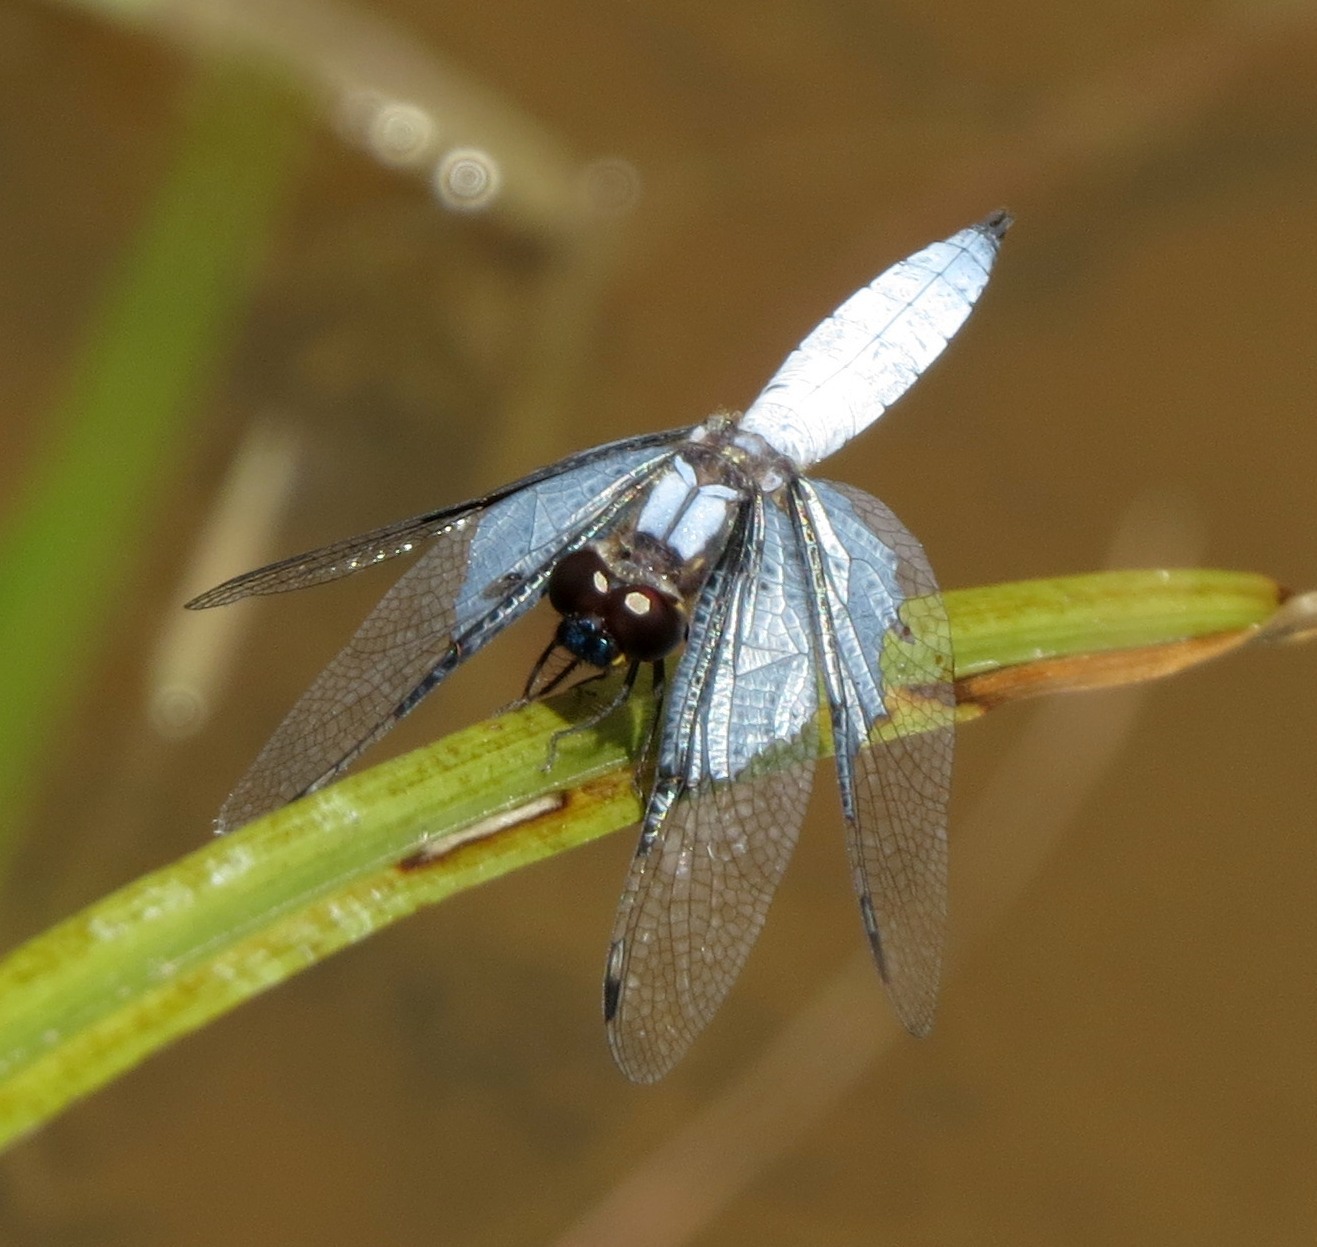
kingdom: Animalia
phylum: Arthropoda
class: Insecta
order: Odonata
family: Libellulidae
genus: Palpopleura
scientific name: Palpopleura vestita
